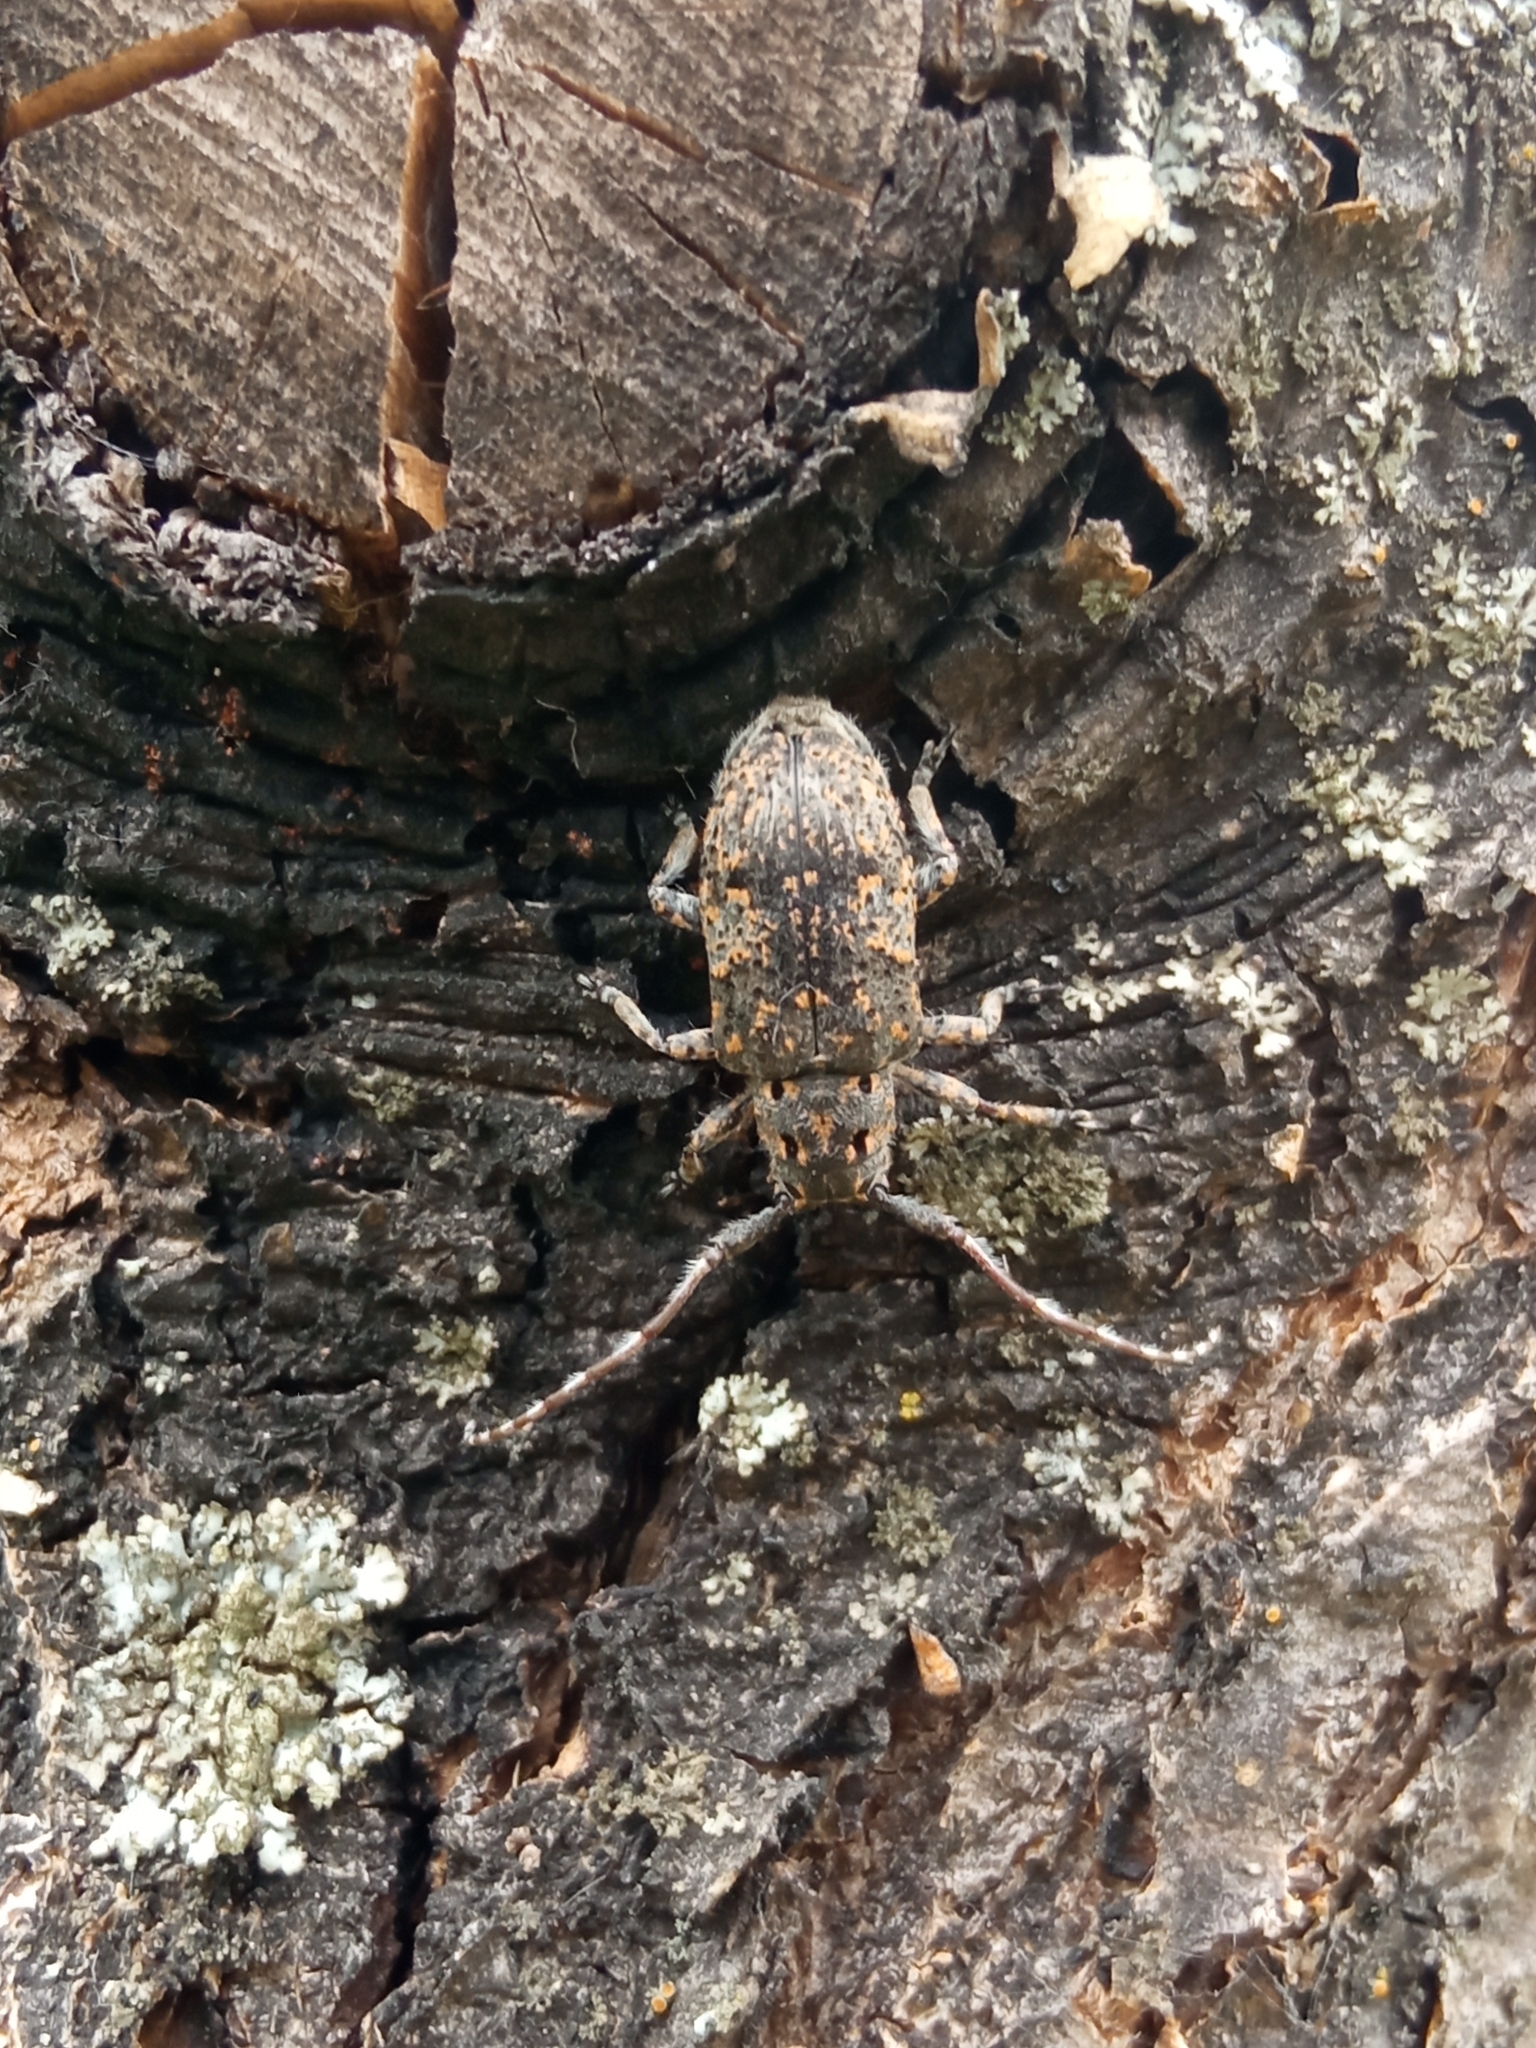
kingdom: Animalia
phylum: Arthropoda
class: Insecta
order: Coleoptera
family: Cerambycidae
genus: Mesosa
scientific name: Mesosa myops
